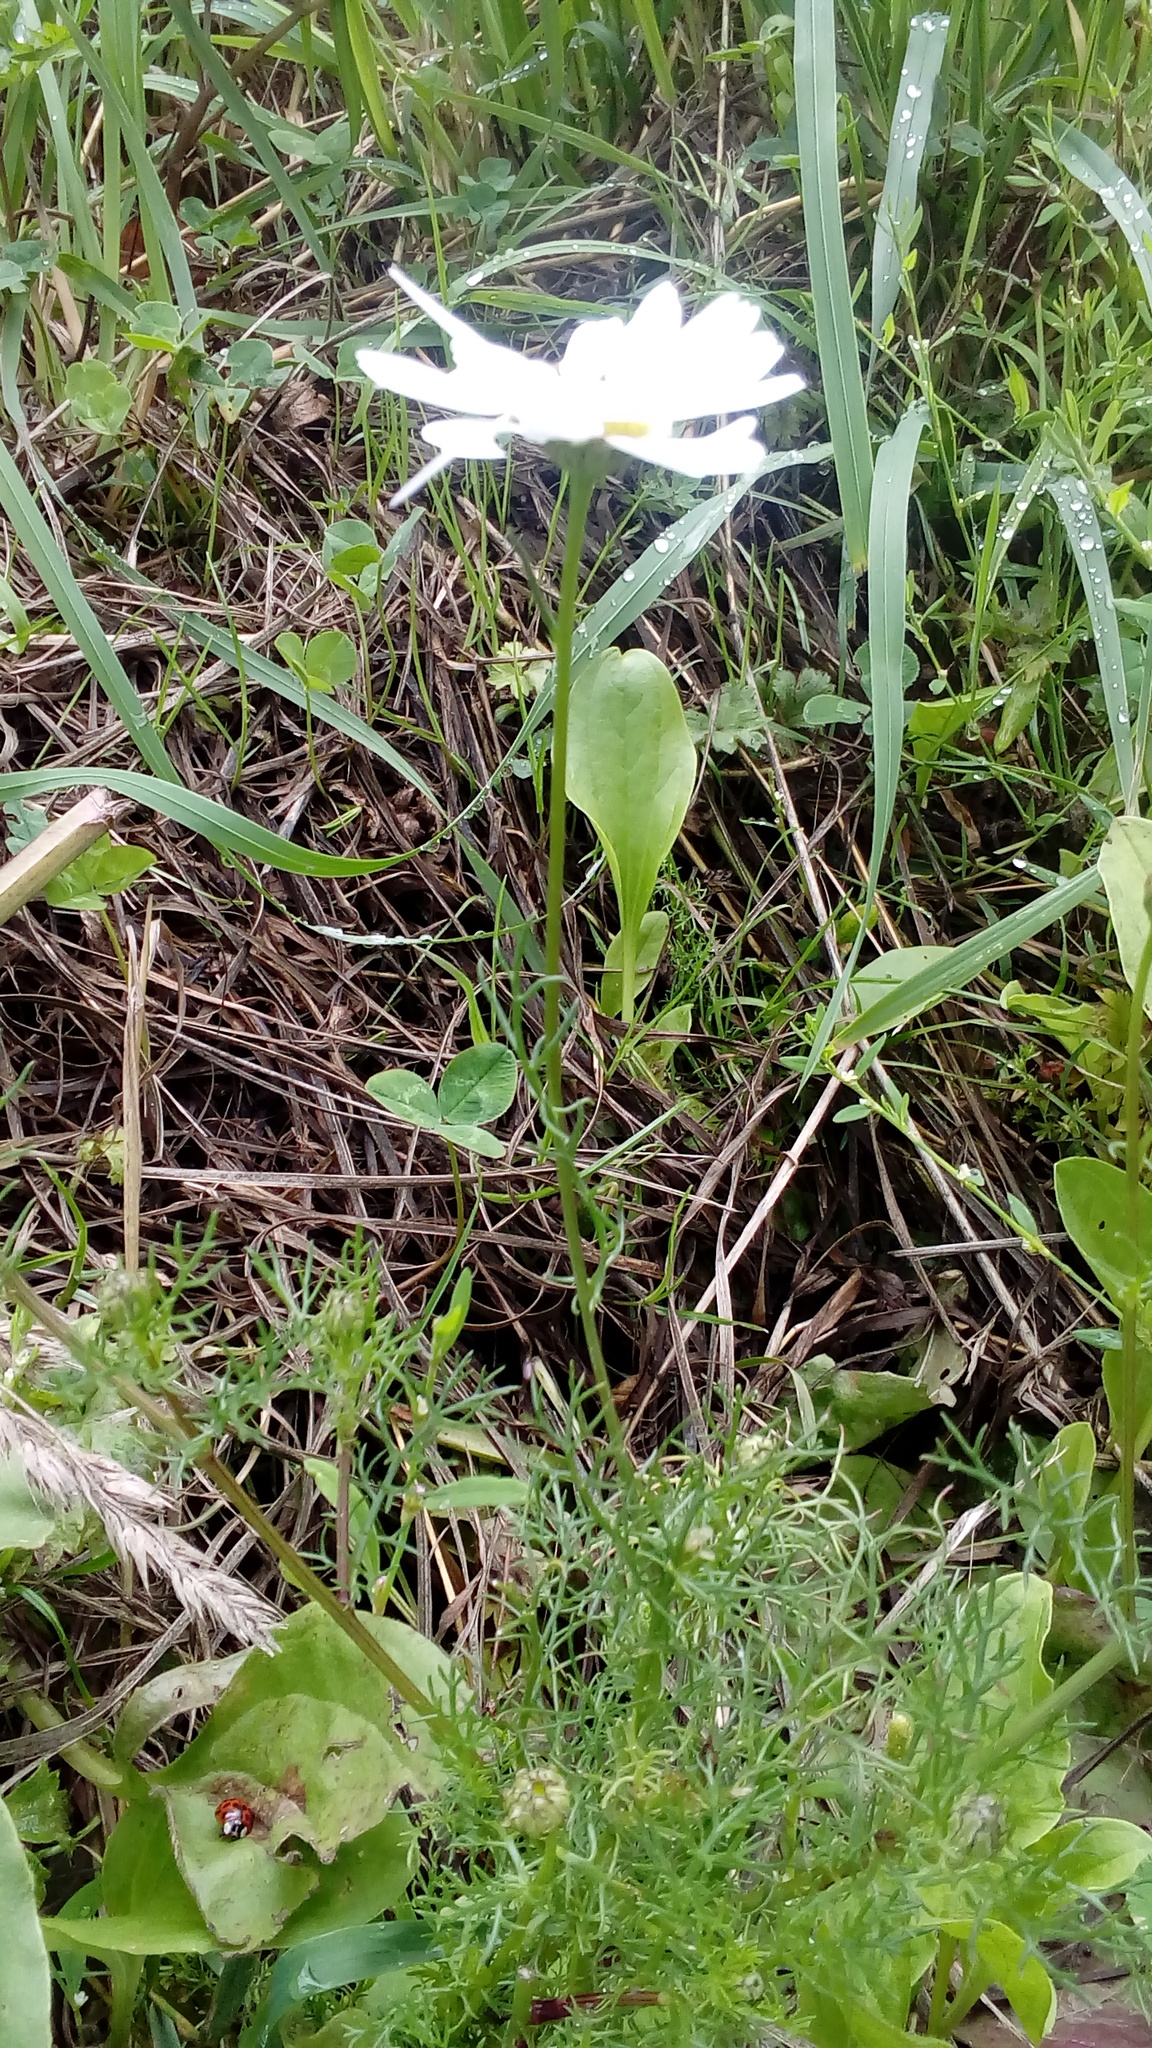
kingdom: Plantae
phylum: Tracheophyta
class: Magnoliopsida
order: Asterales
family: Asteraceae
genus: Tripleurospermum
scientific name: Tripleurospermum inodorum
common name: Scentless mayweed
